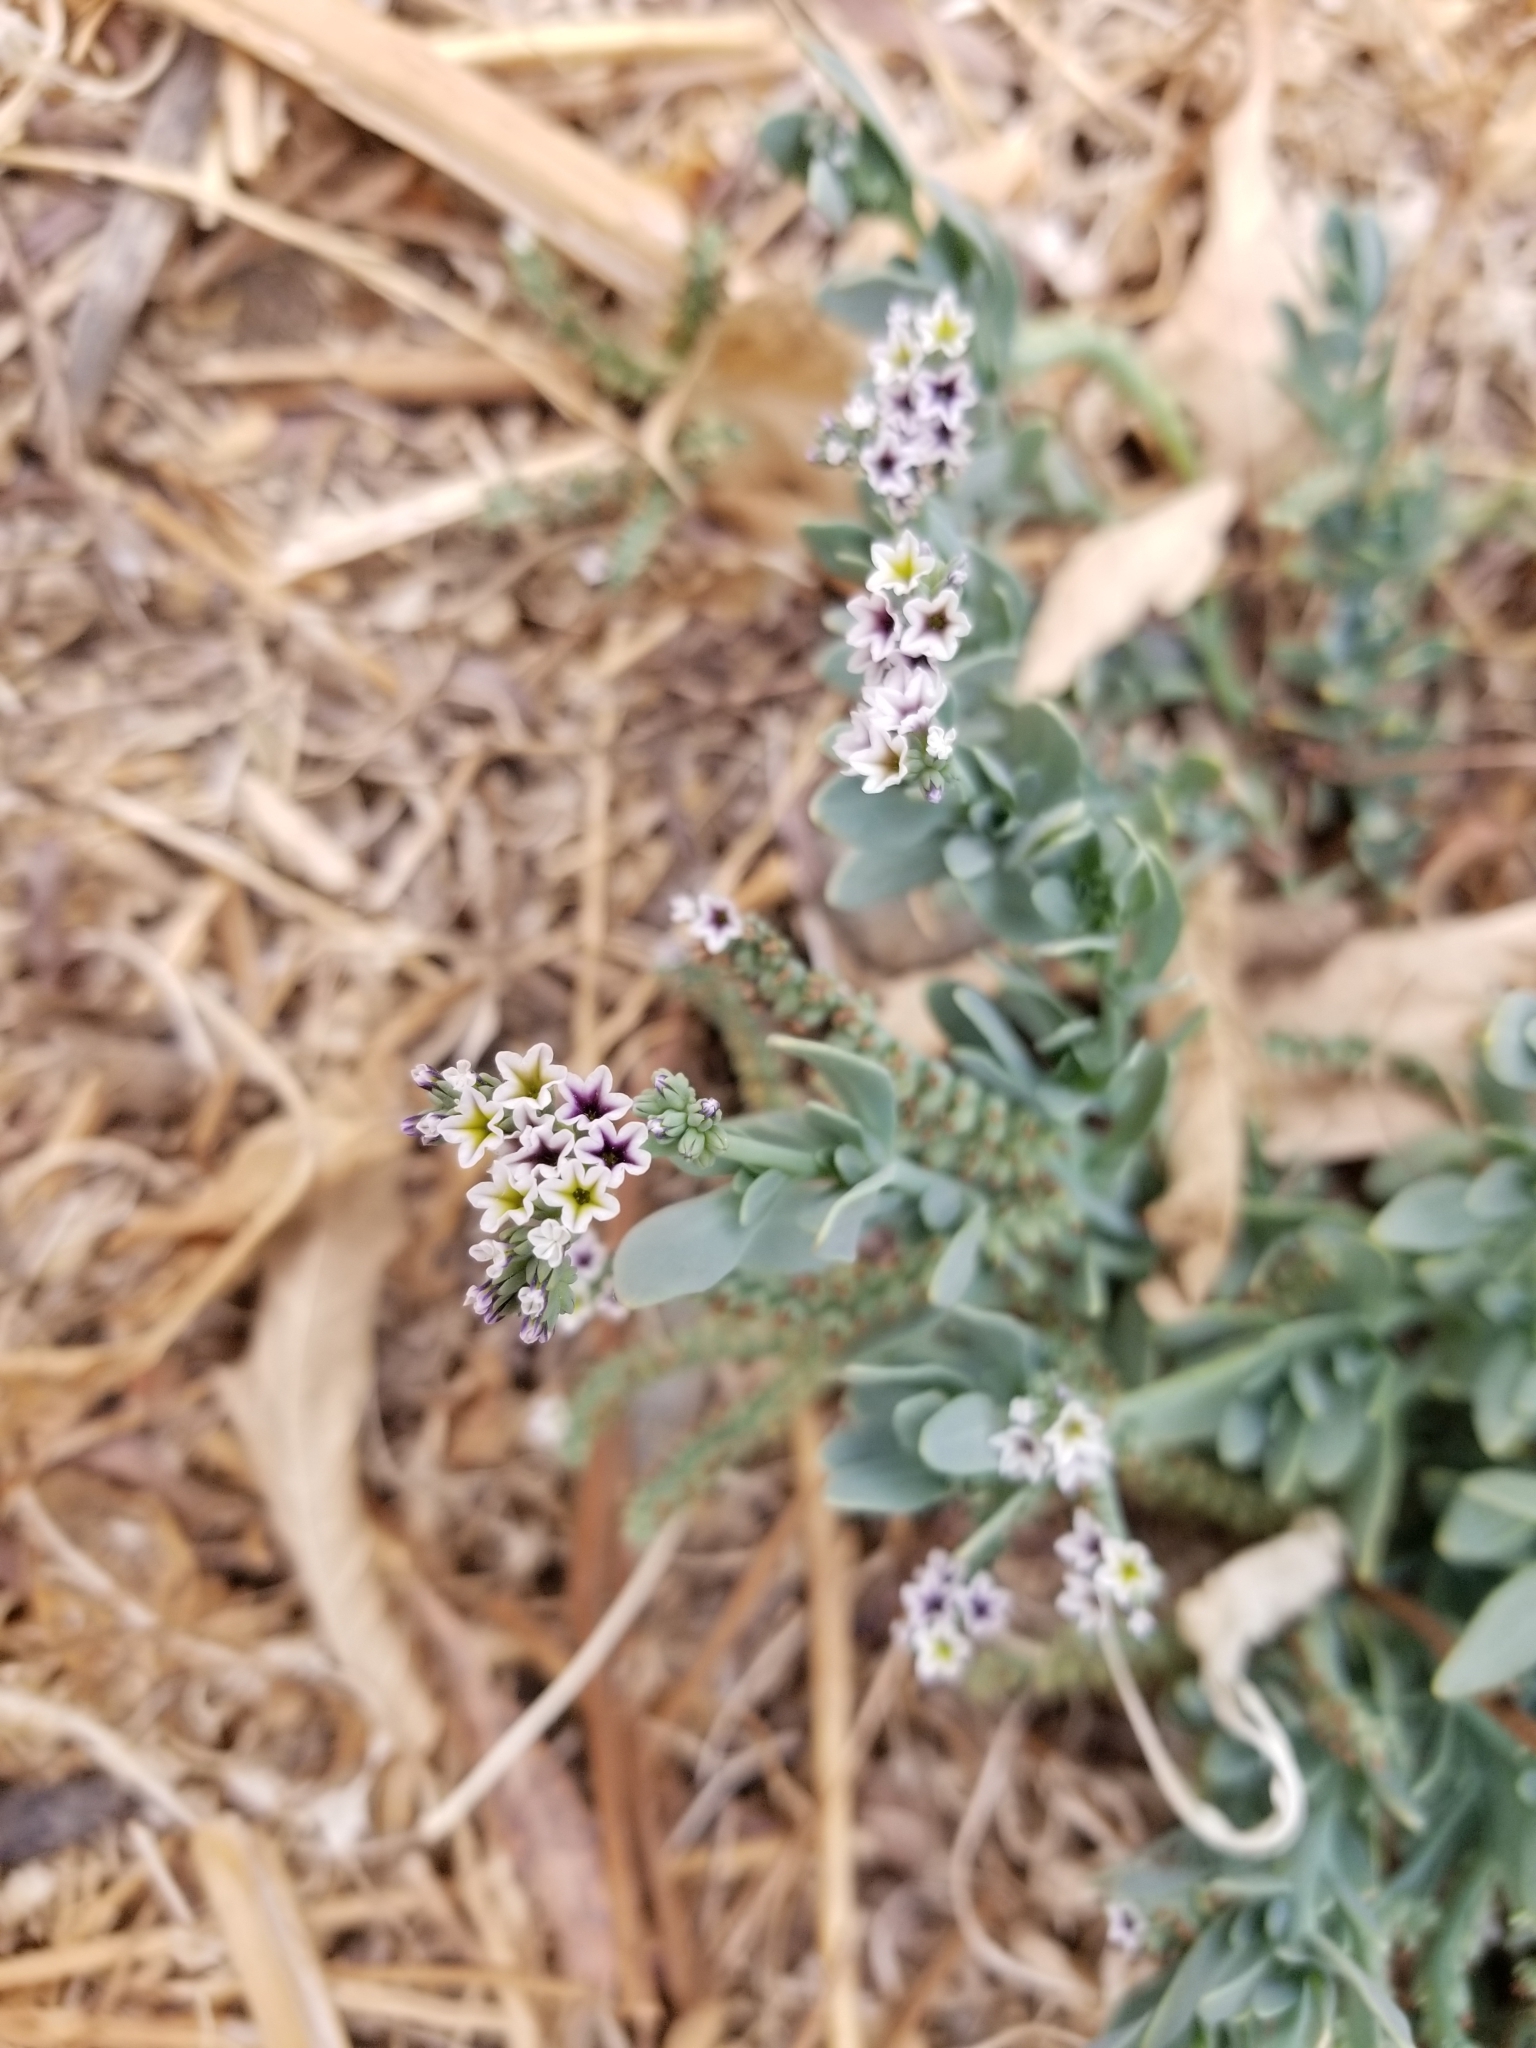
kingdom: Plantae
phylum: Tracheophyta
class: Magnoliopsida
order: Boraginales
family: Heliotropiaceae
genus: Heliotropium
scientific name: Heliotropium curassavicum
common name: Seaside heliotrope
